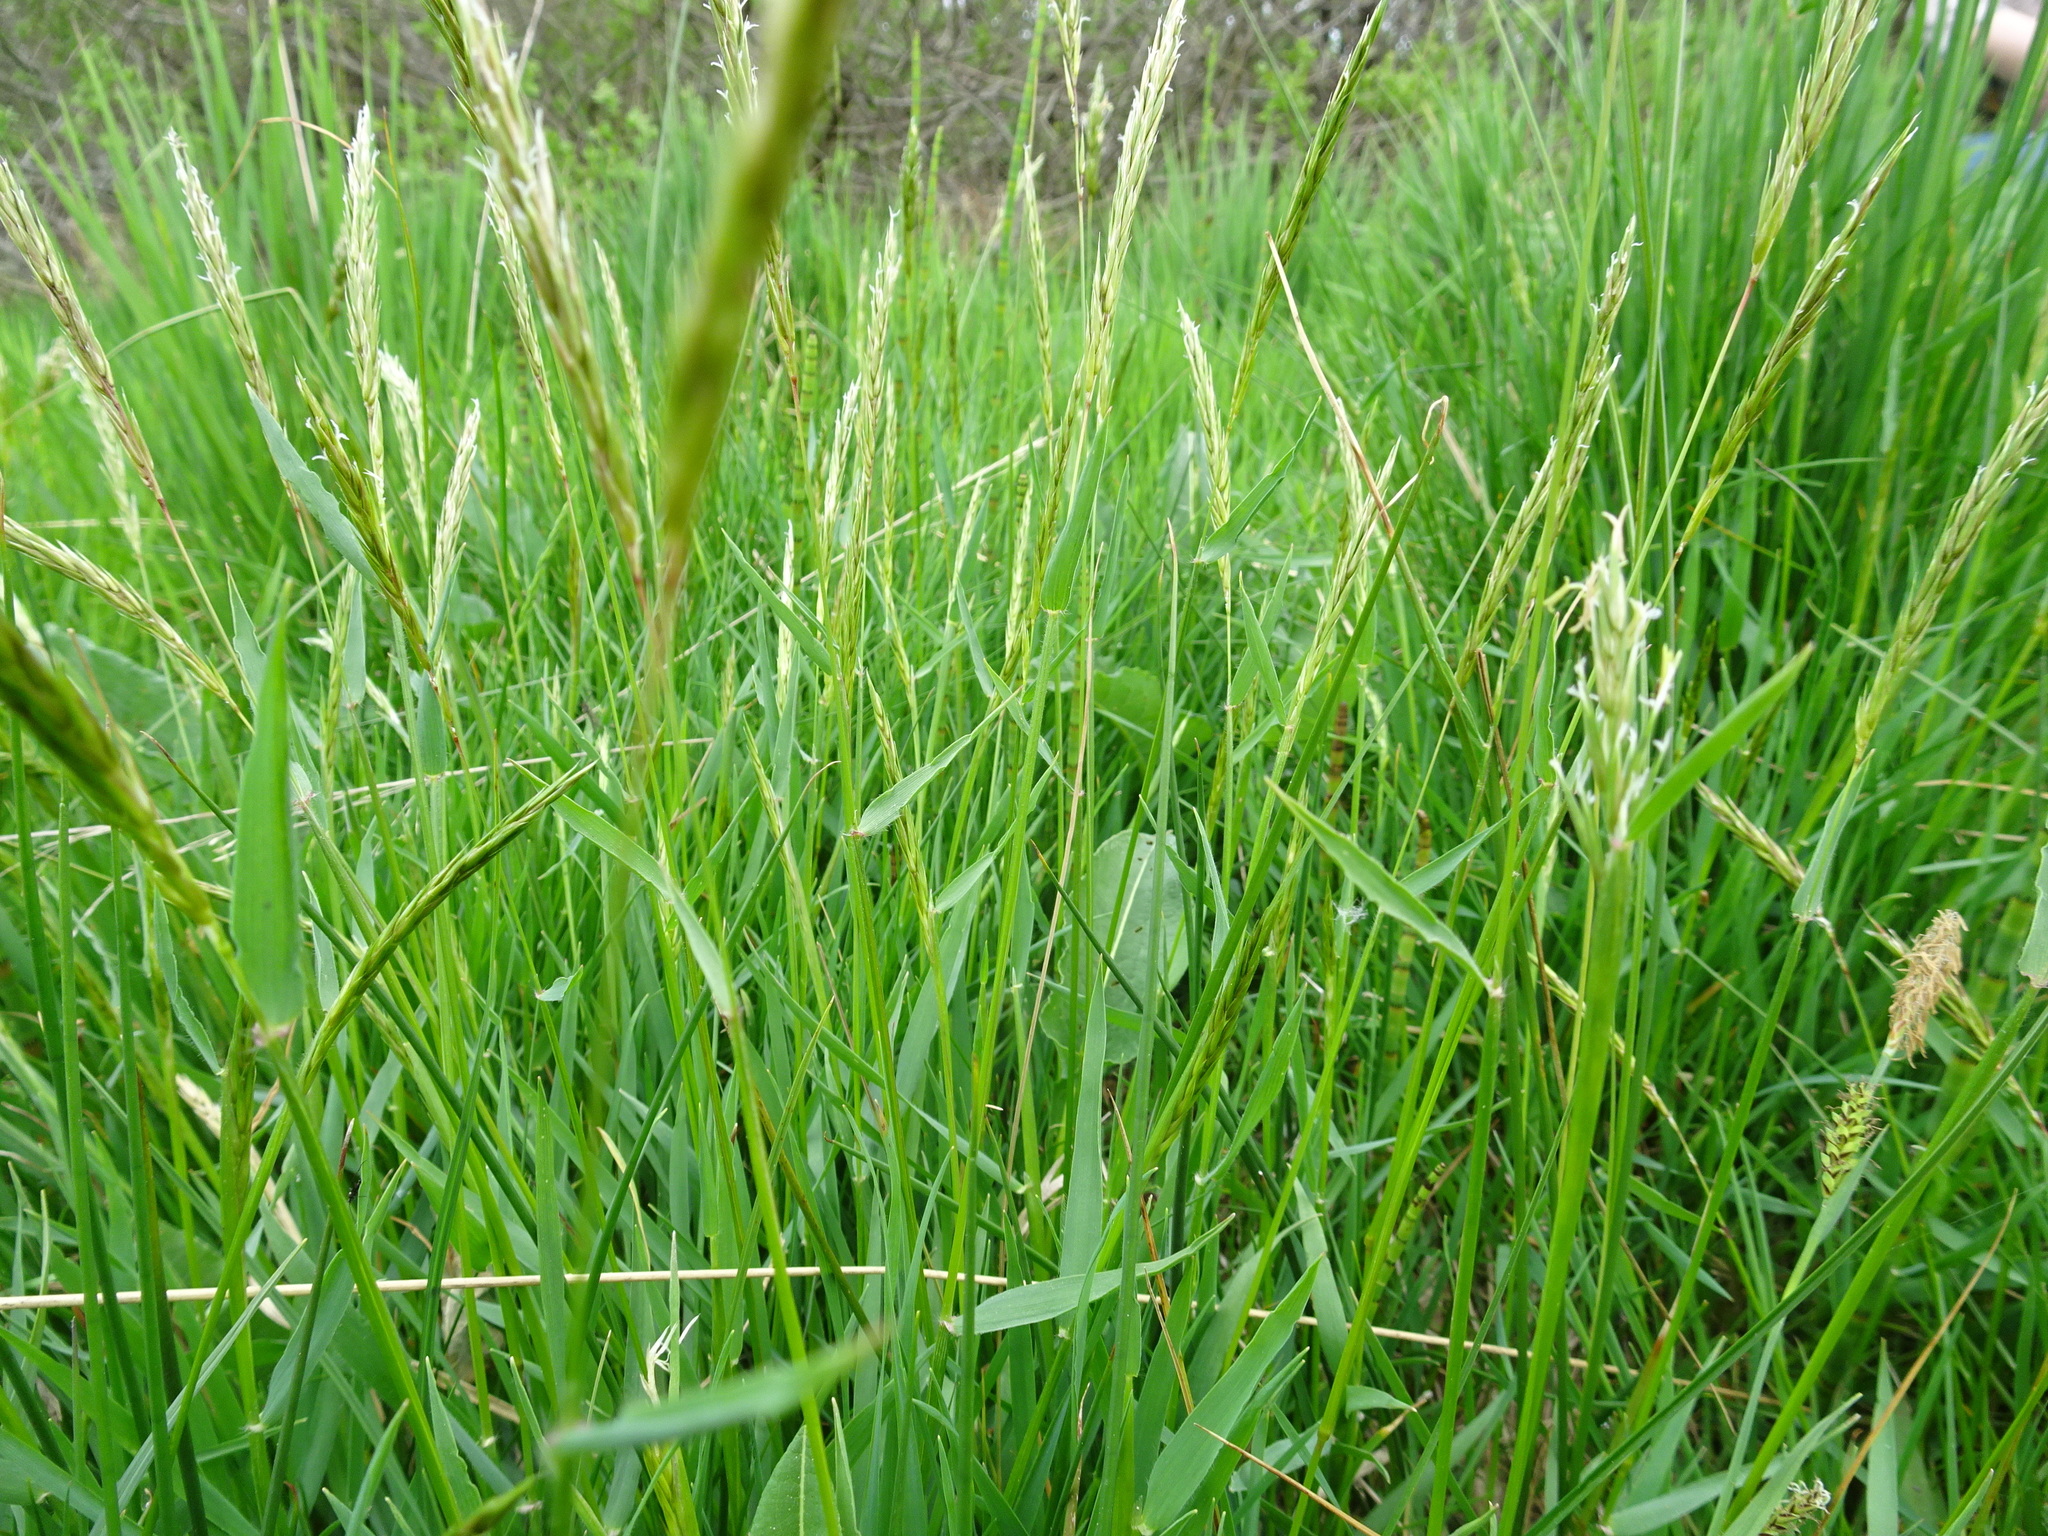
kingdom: Plantae
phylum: Tracheophyta
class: Liliopsida
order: Poales
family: Poaceae
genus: Anthoxanthum
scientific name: Anthoxanthum odoratum
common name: Sweet vernalgrass
